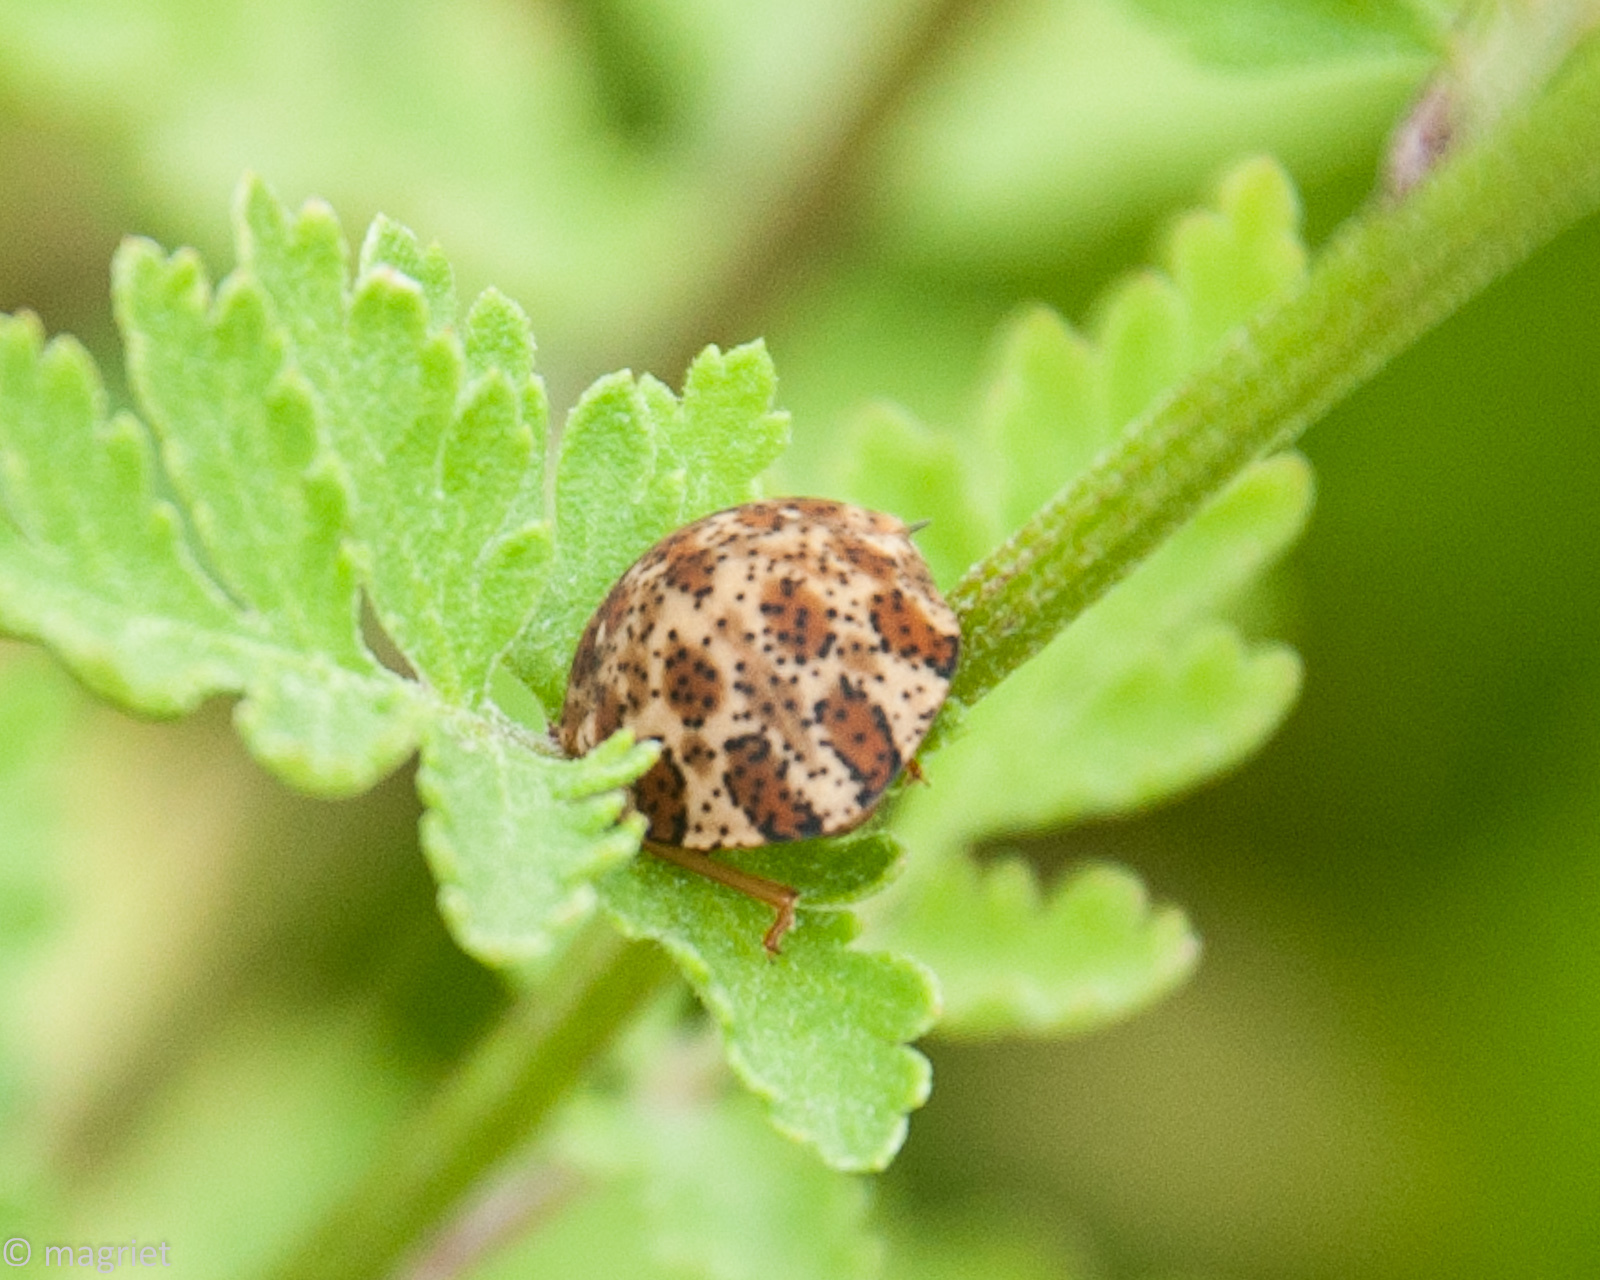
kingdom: Animalia
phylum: Arthropoda
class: Insecta
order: Hemiptera
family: Scutelleridae
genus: Sphaerocoris
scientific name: Sphaerocoris
